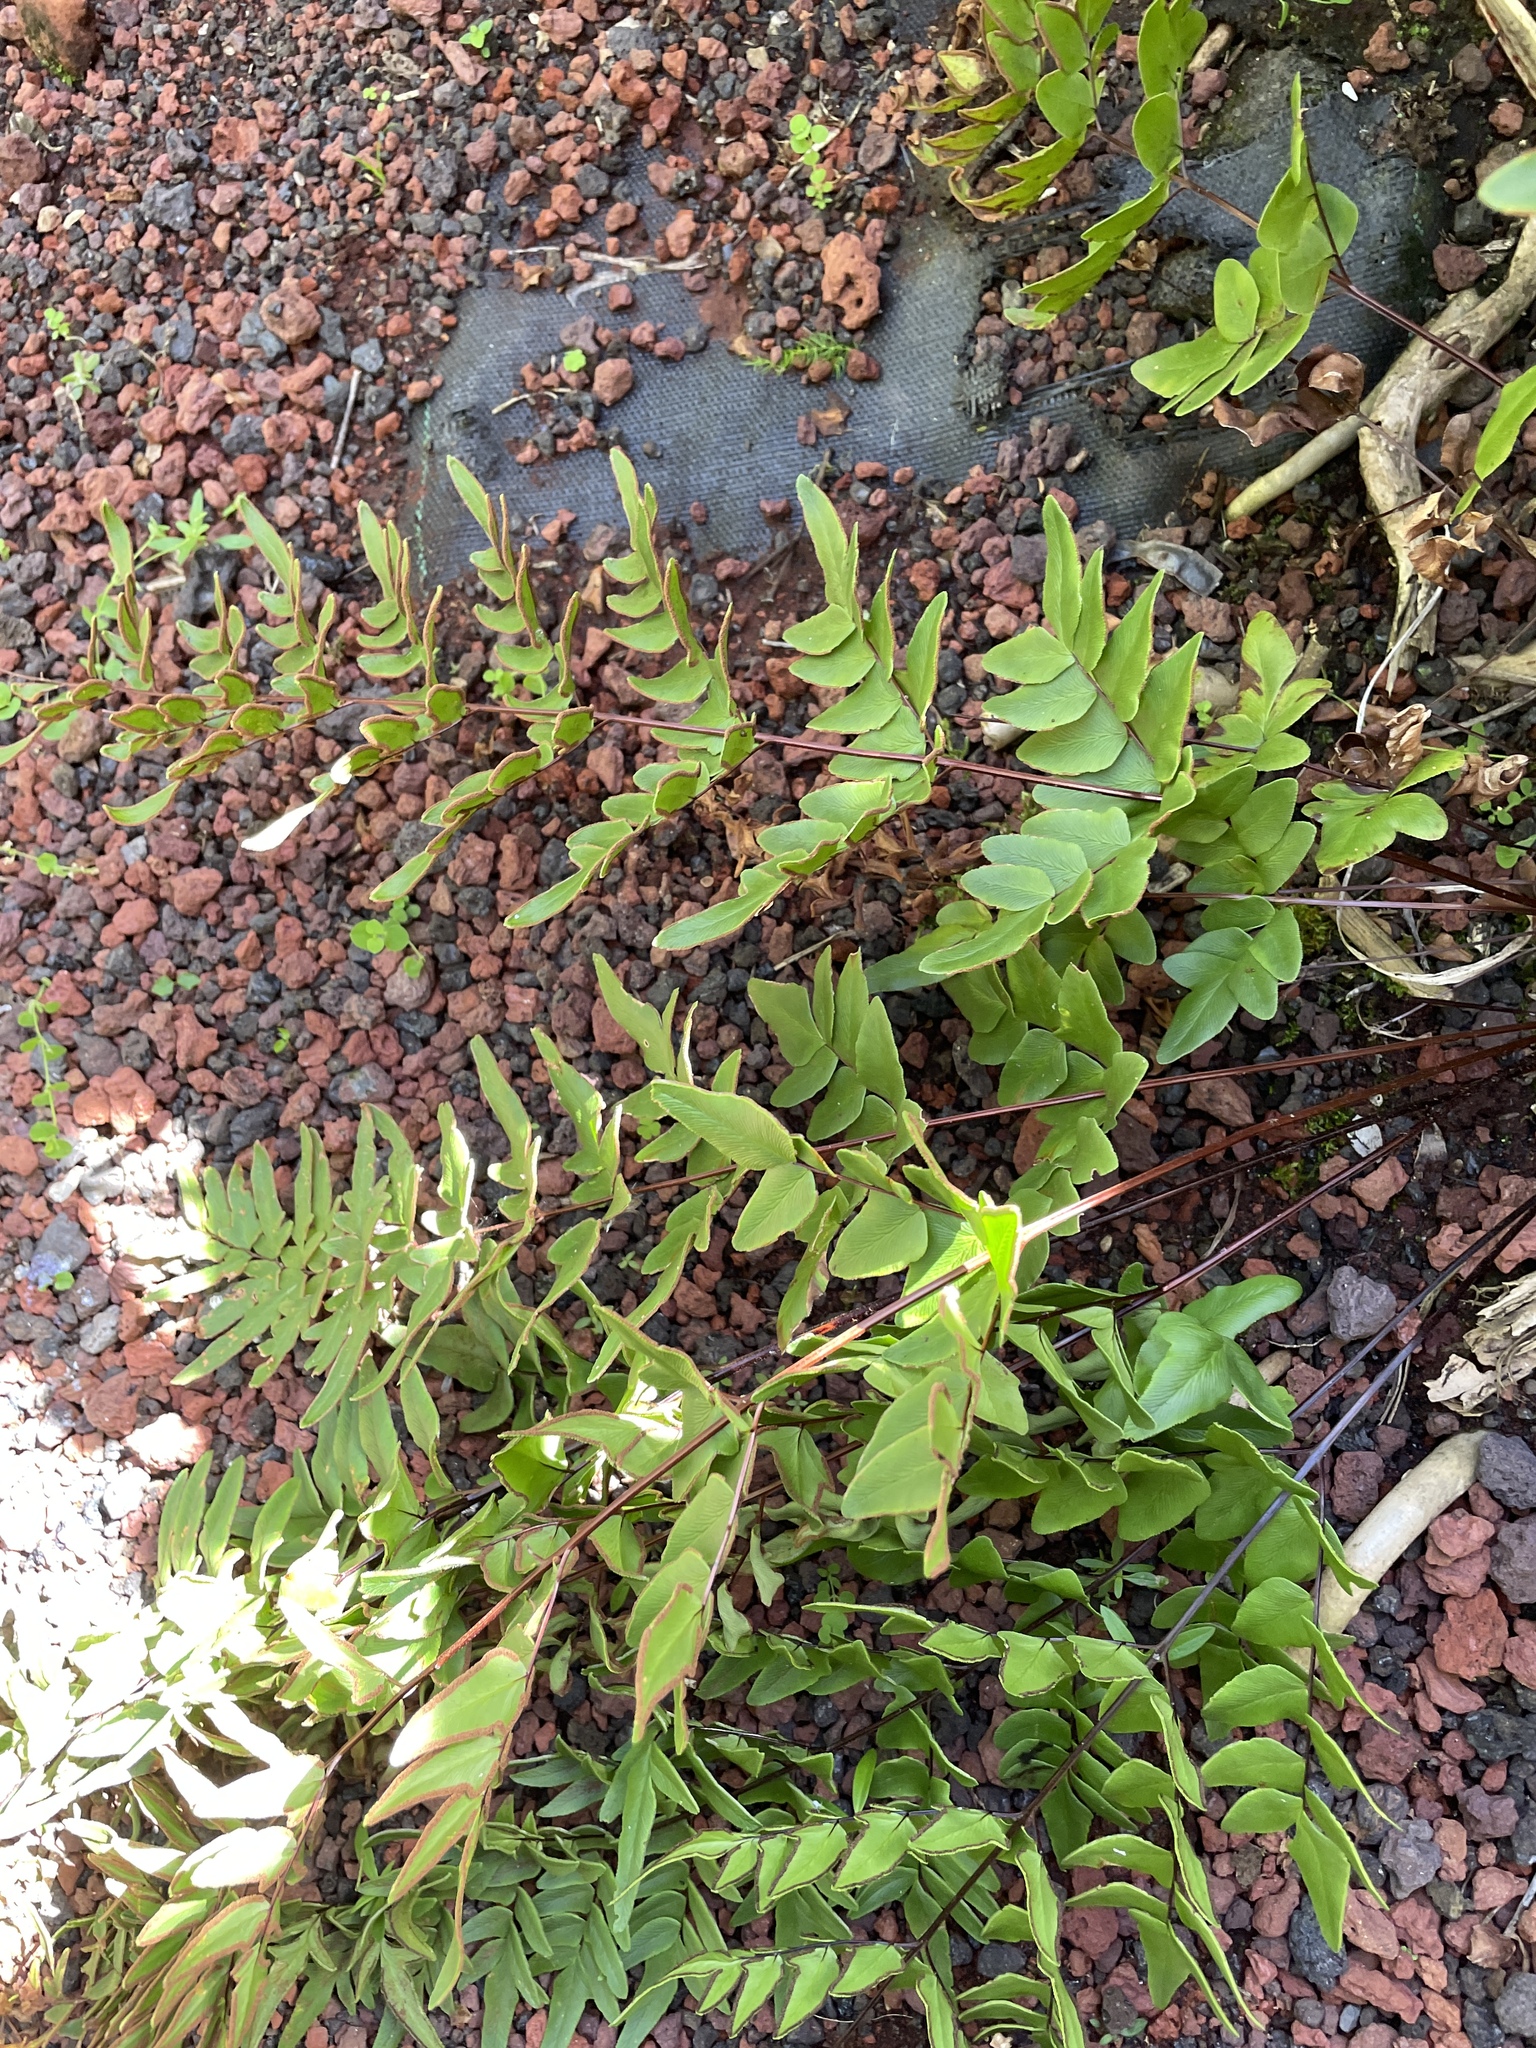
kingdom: Plantae
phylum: Tracheophyta
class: Polypodiopsida
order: Polypodiales
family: Pteridaceae
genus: Cheilanthes
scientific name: Cheilanthes viridis
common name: Green cliffbrake
